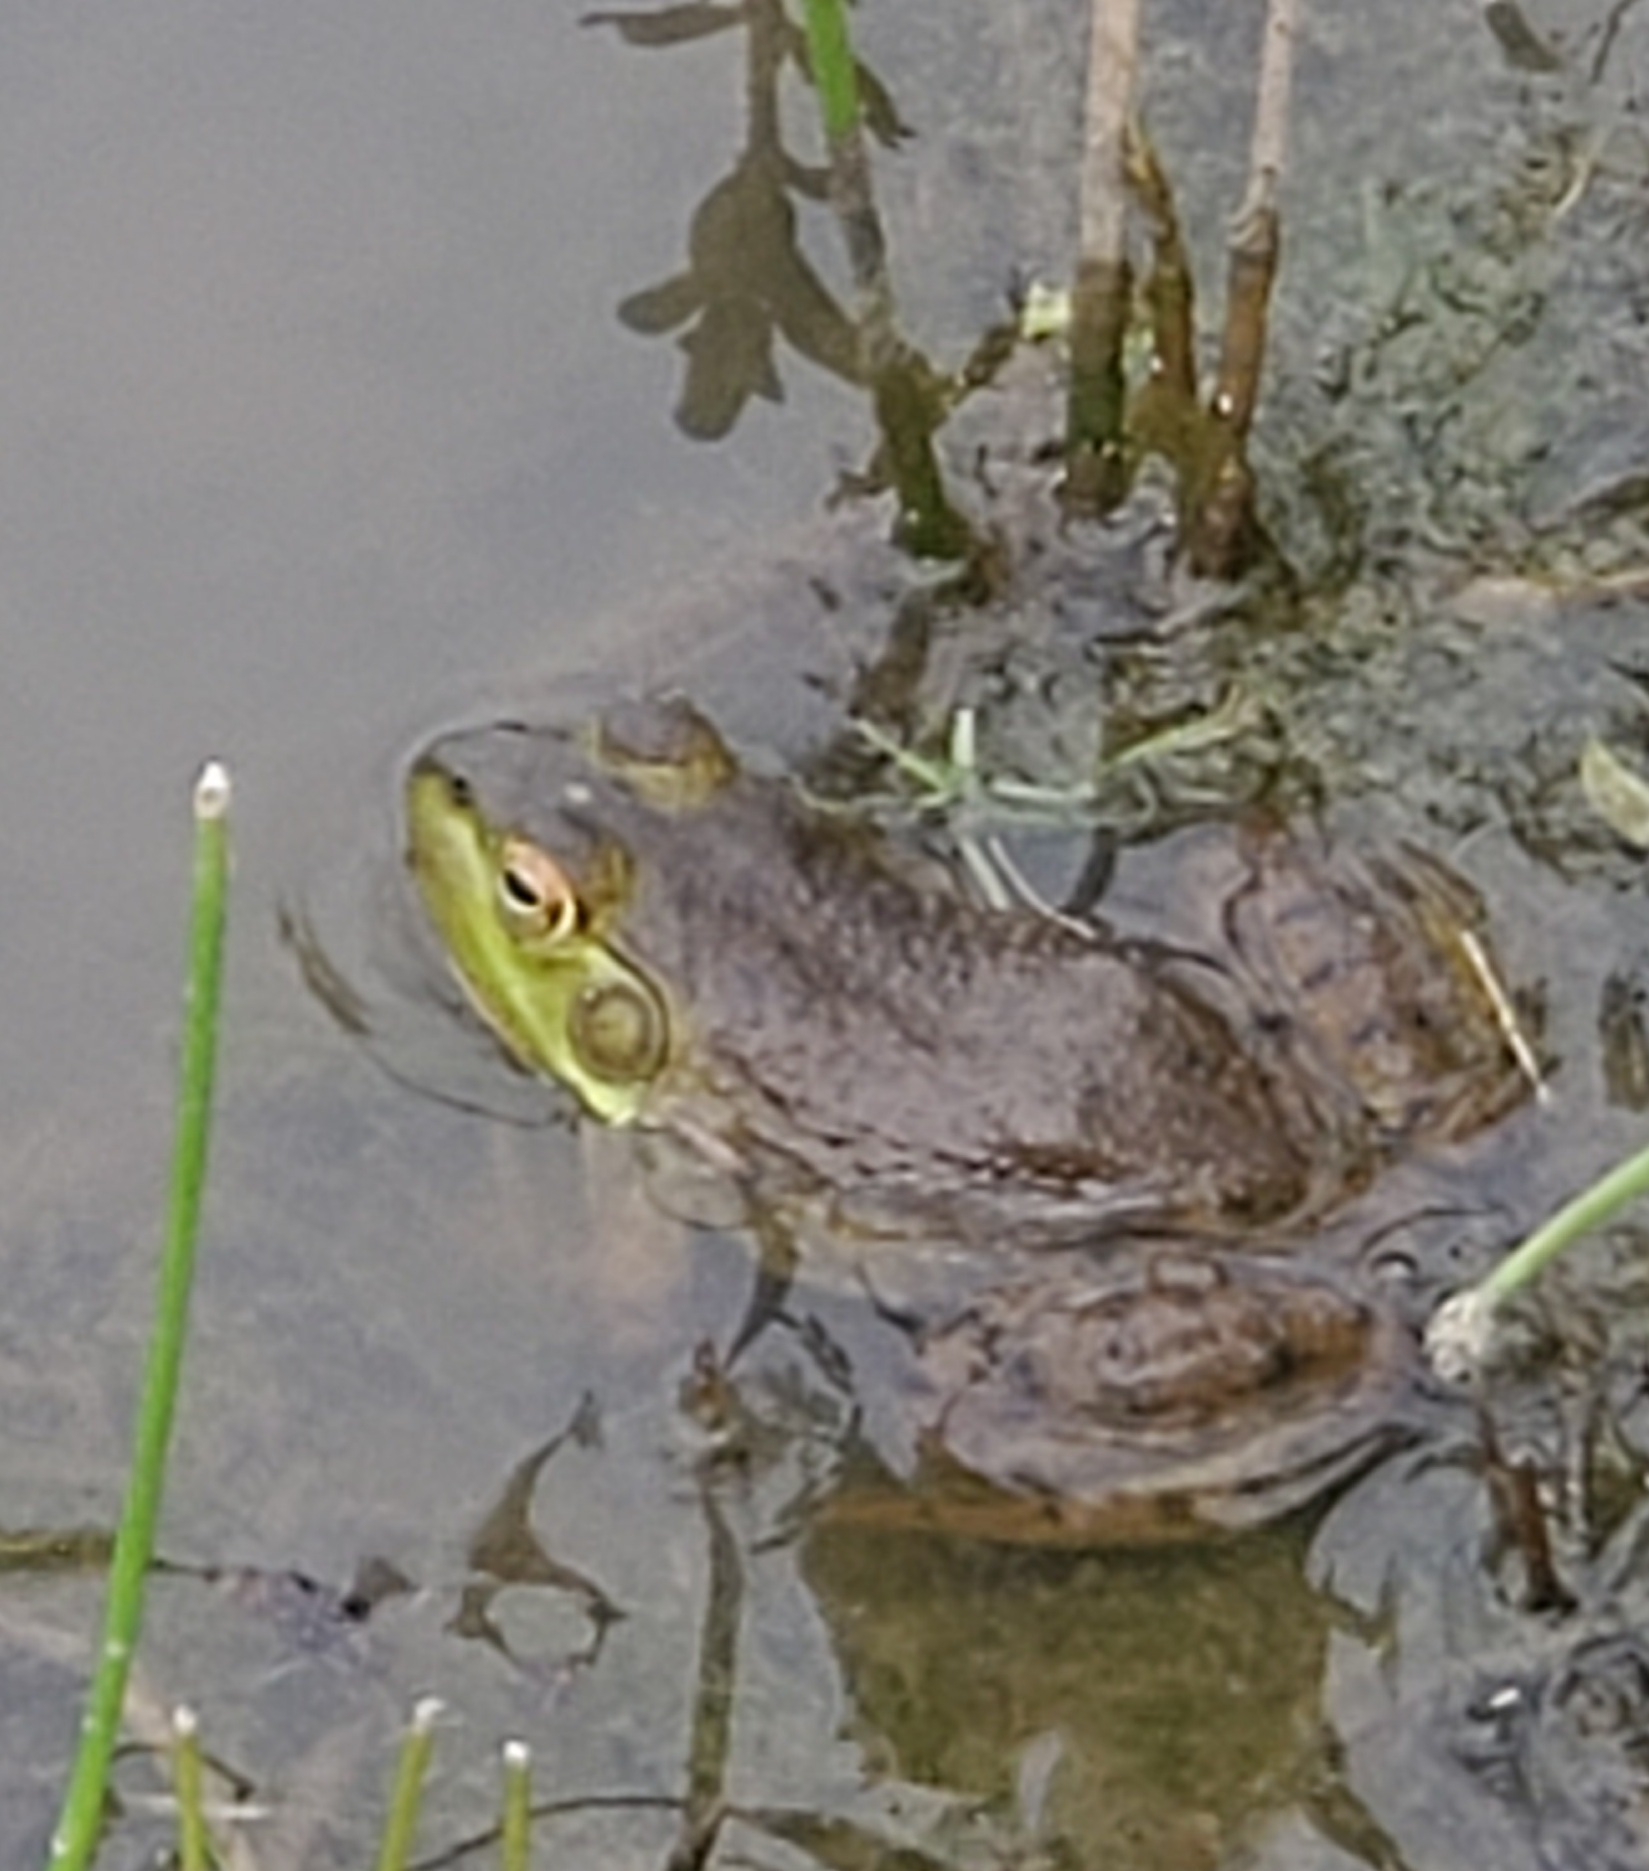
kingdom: Animalia
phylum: Chordata
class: Amphibia
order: Anura
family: Ranidae
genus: Lithobates
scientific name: Lithobates catesbeianus
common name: American bullfrog
